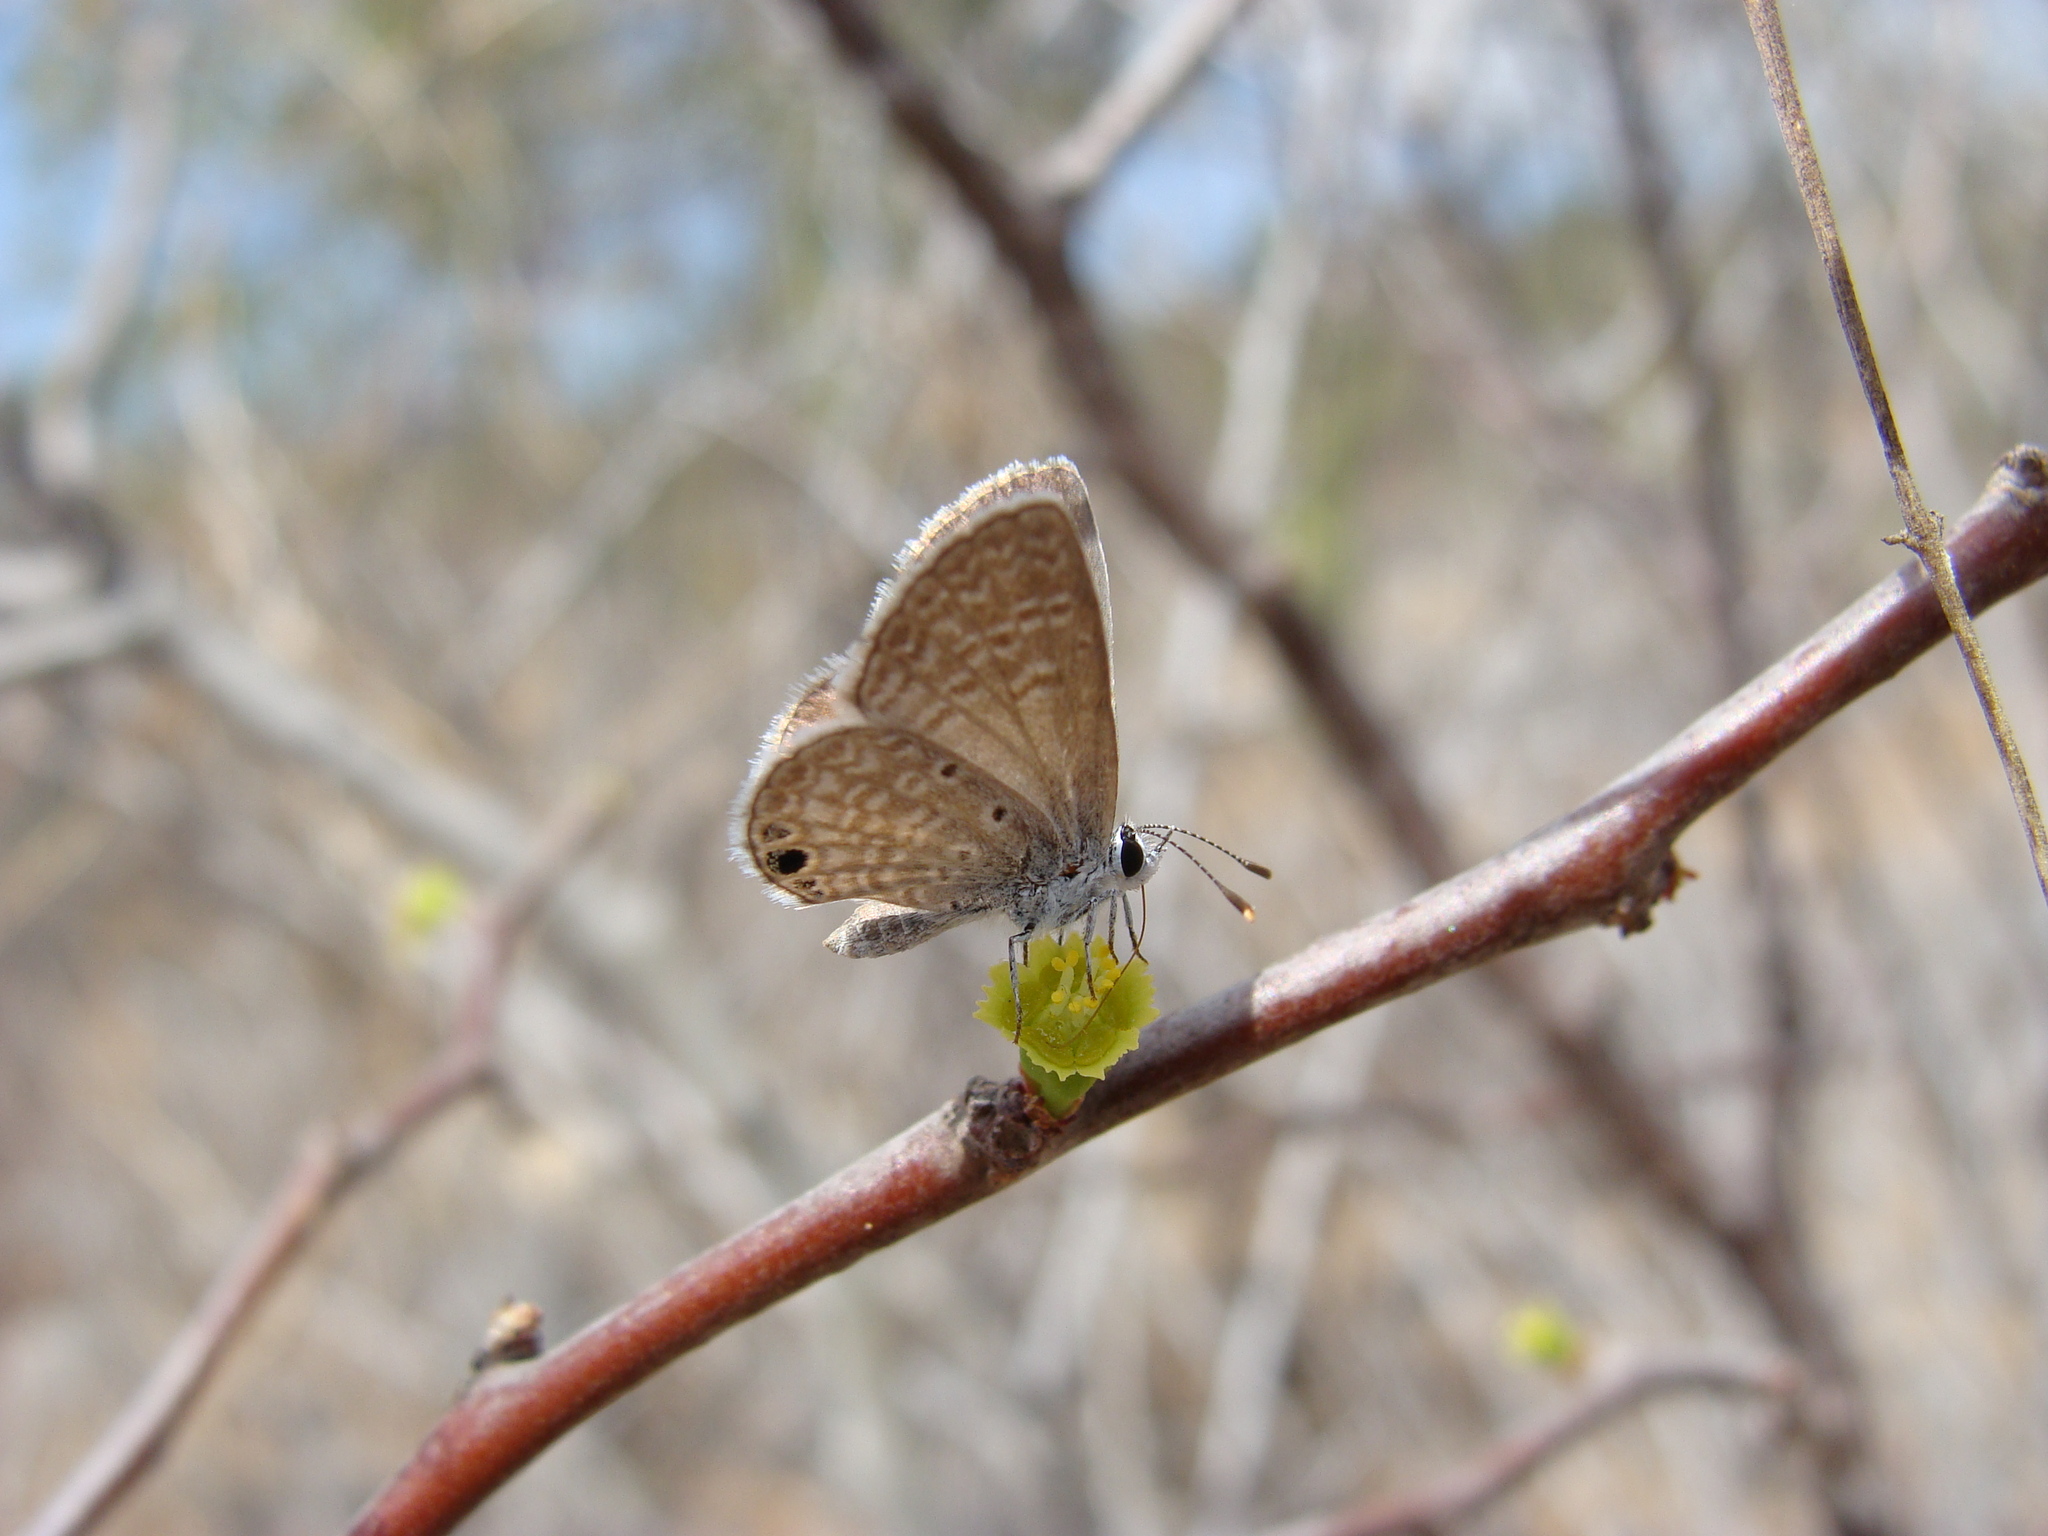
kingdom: Animalia
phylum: Arthropoda
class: Insecta
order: Lepidoptera
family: Lycaenidae
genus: Echinargus
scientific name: Echinargus isola
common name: Reakirt's blue
